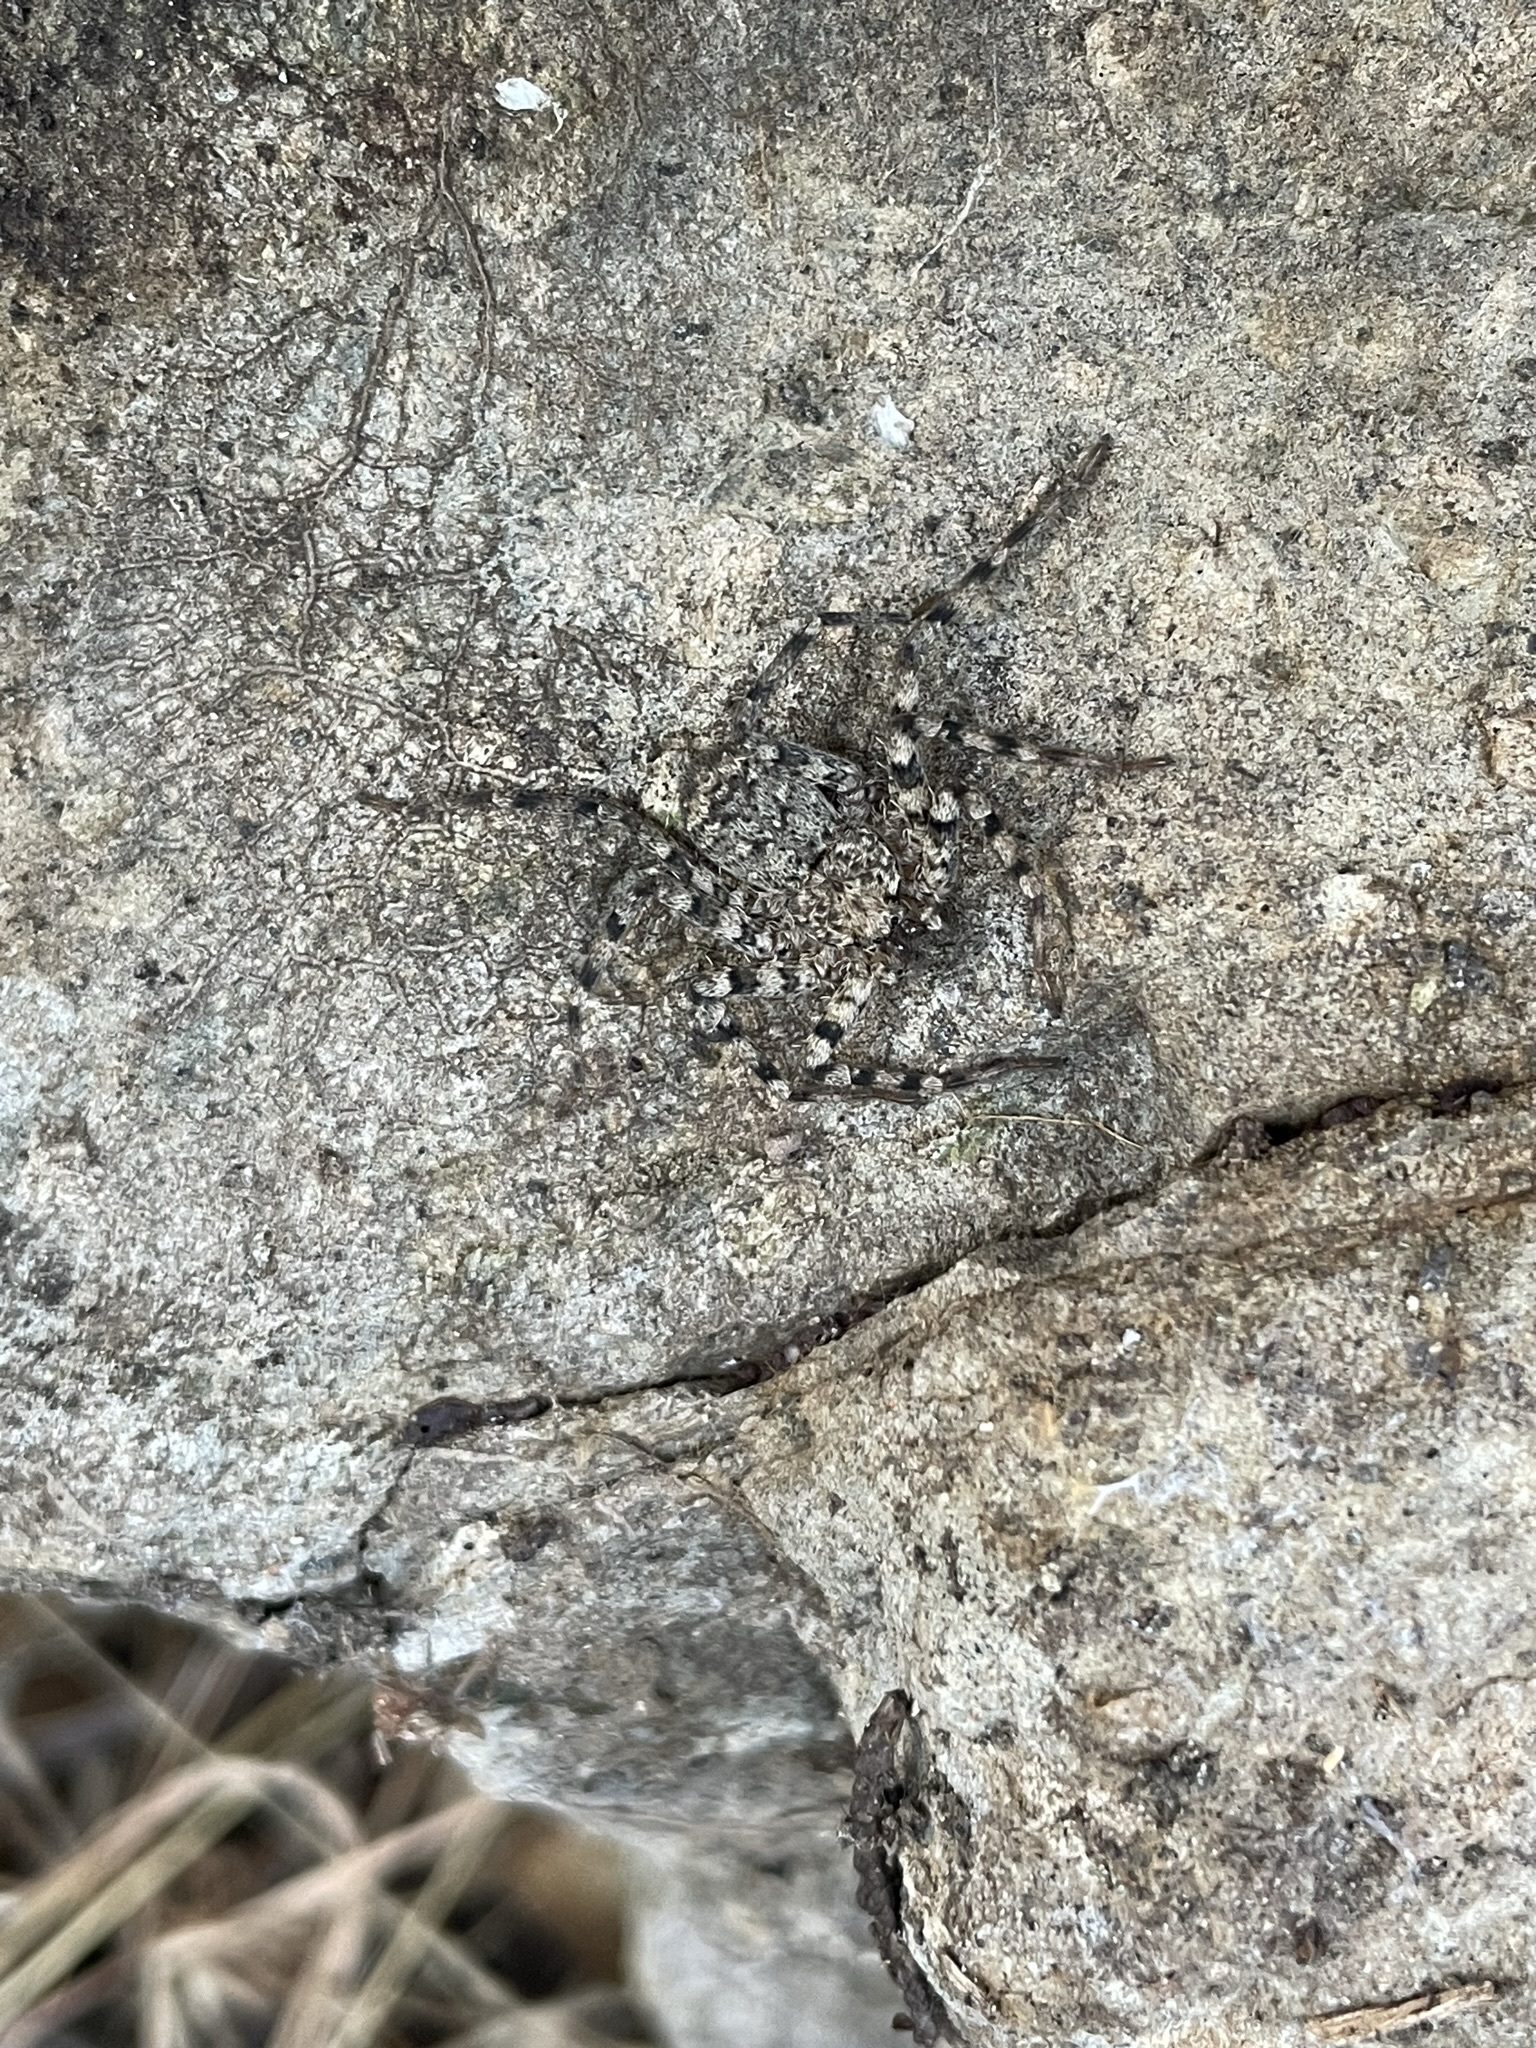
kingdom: Animalia
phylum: Arthropoda
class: Arachnida
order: Araneae
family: Selenopidae
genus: Selenops
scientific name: Selenops
